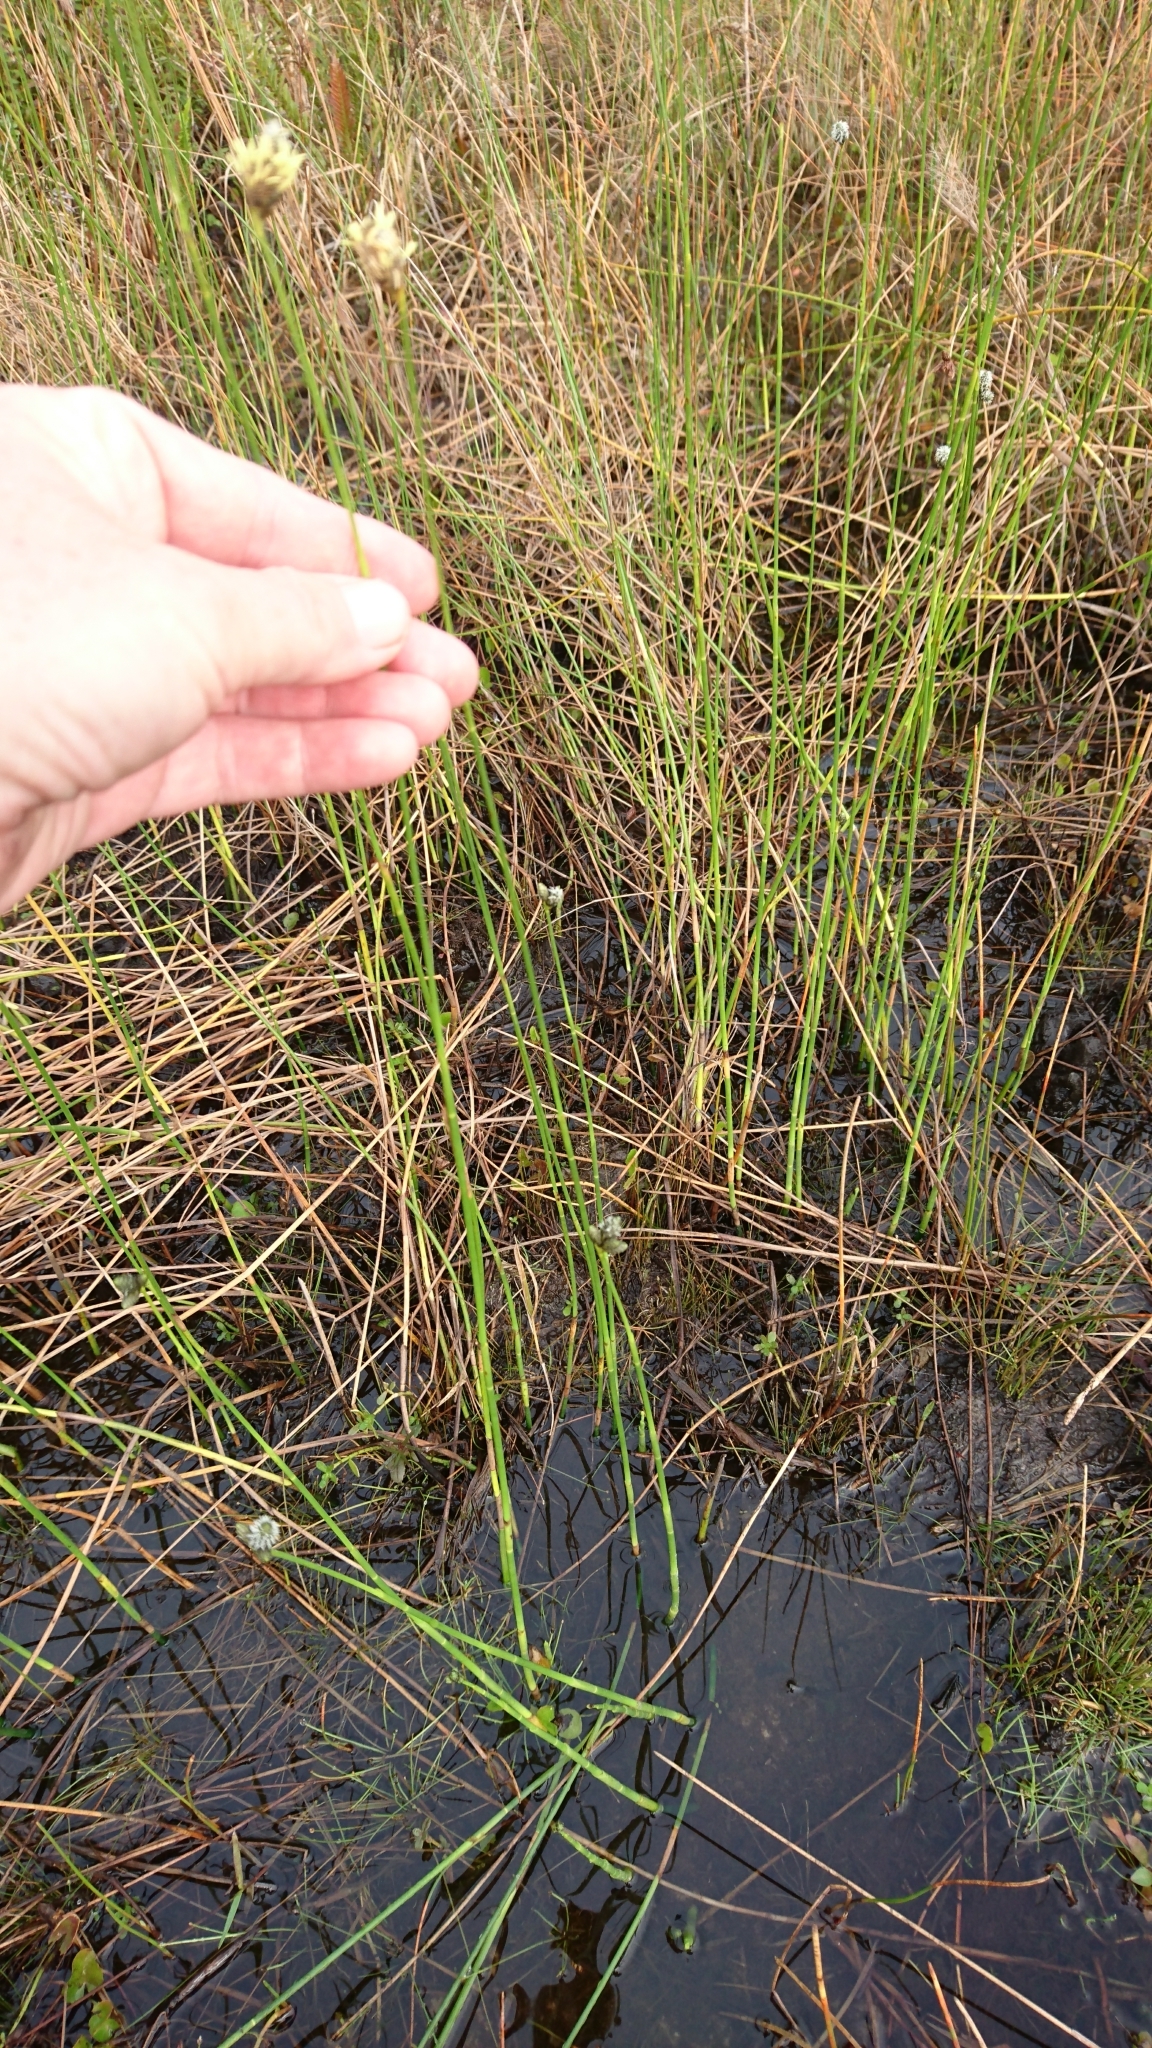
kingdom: Plantae
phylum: Tracheophyta
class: Liliopsida
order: Poales
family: Cyperaceae
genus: Fuirena
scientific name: Fuirena scirpoidea
